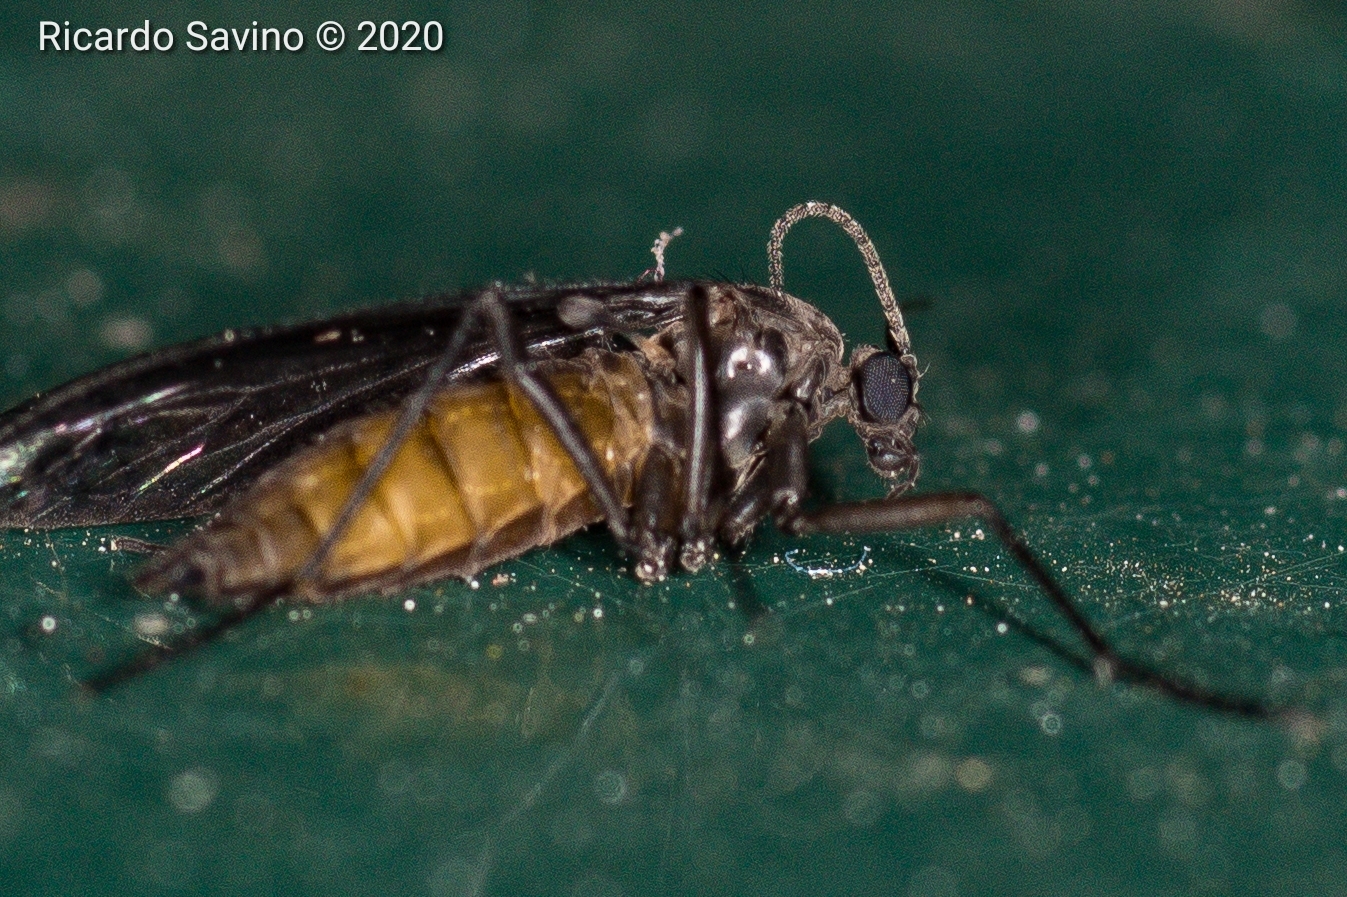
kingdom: Animalia
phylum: Arthropoda
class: Insecta
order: Diptera
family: Sciaridae
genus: Sciara
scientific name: Sciara hemerobioides
